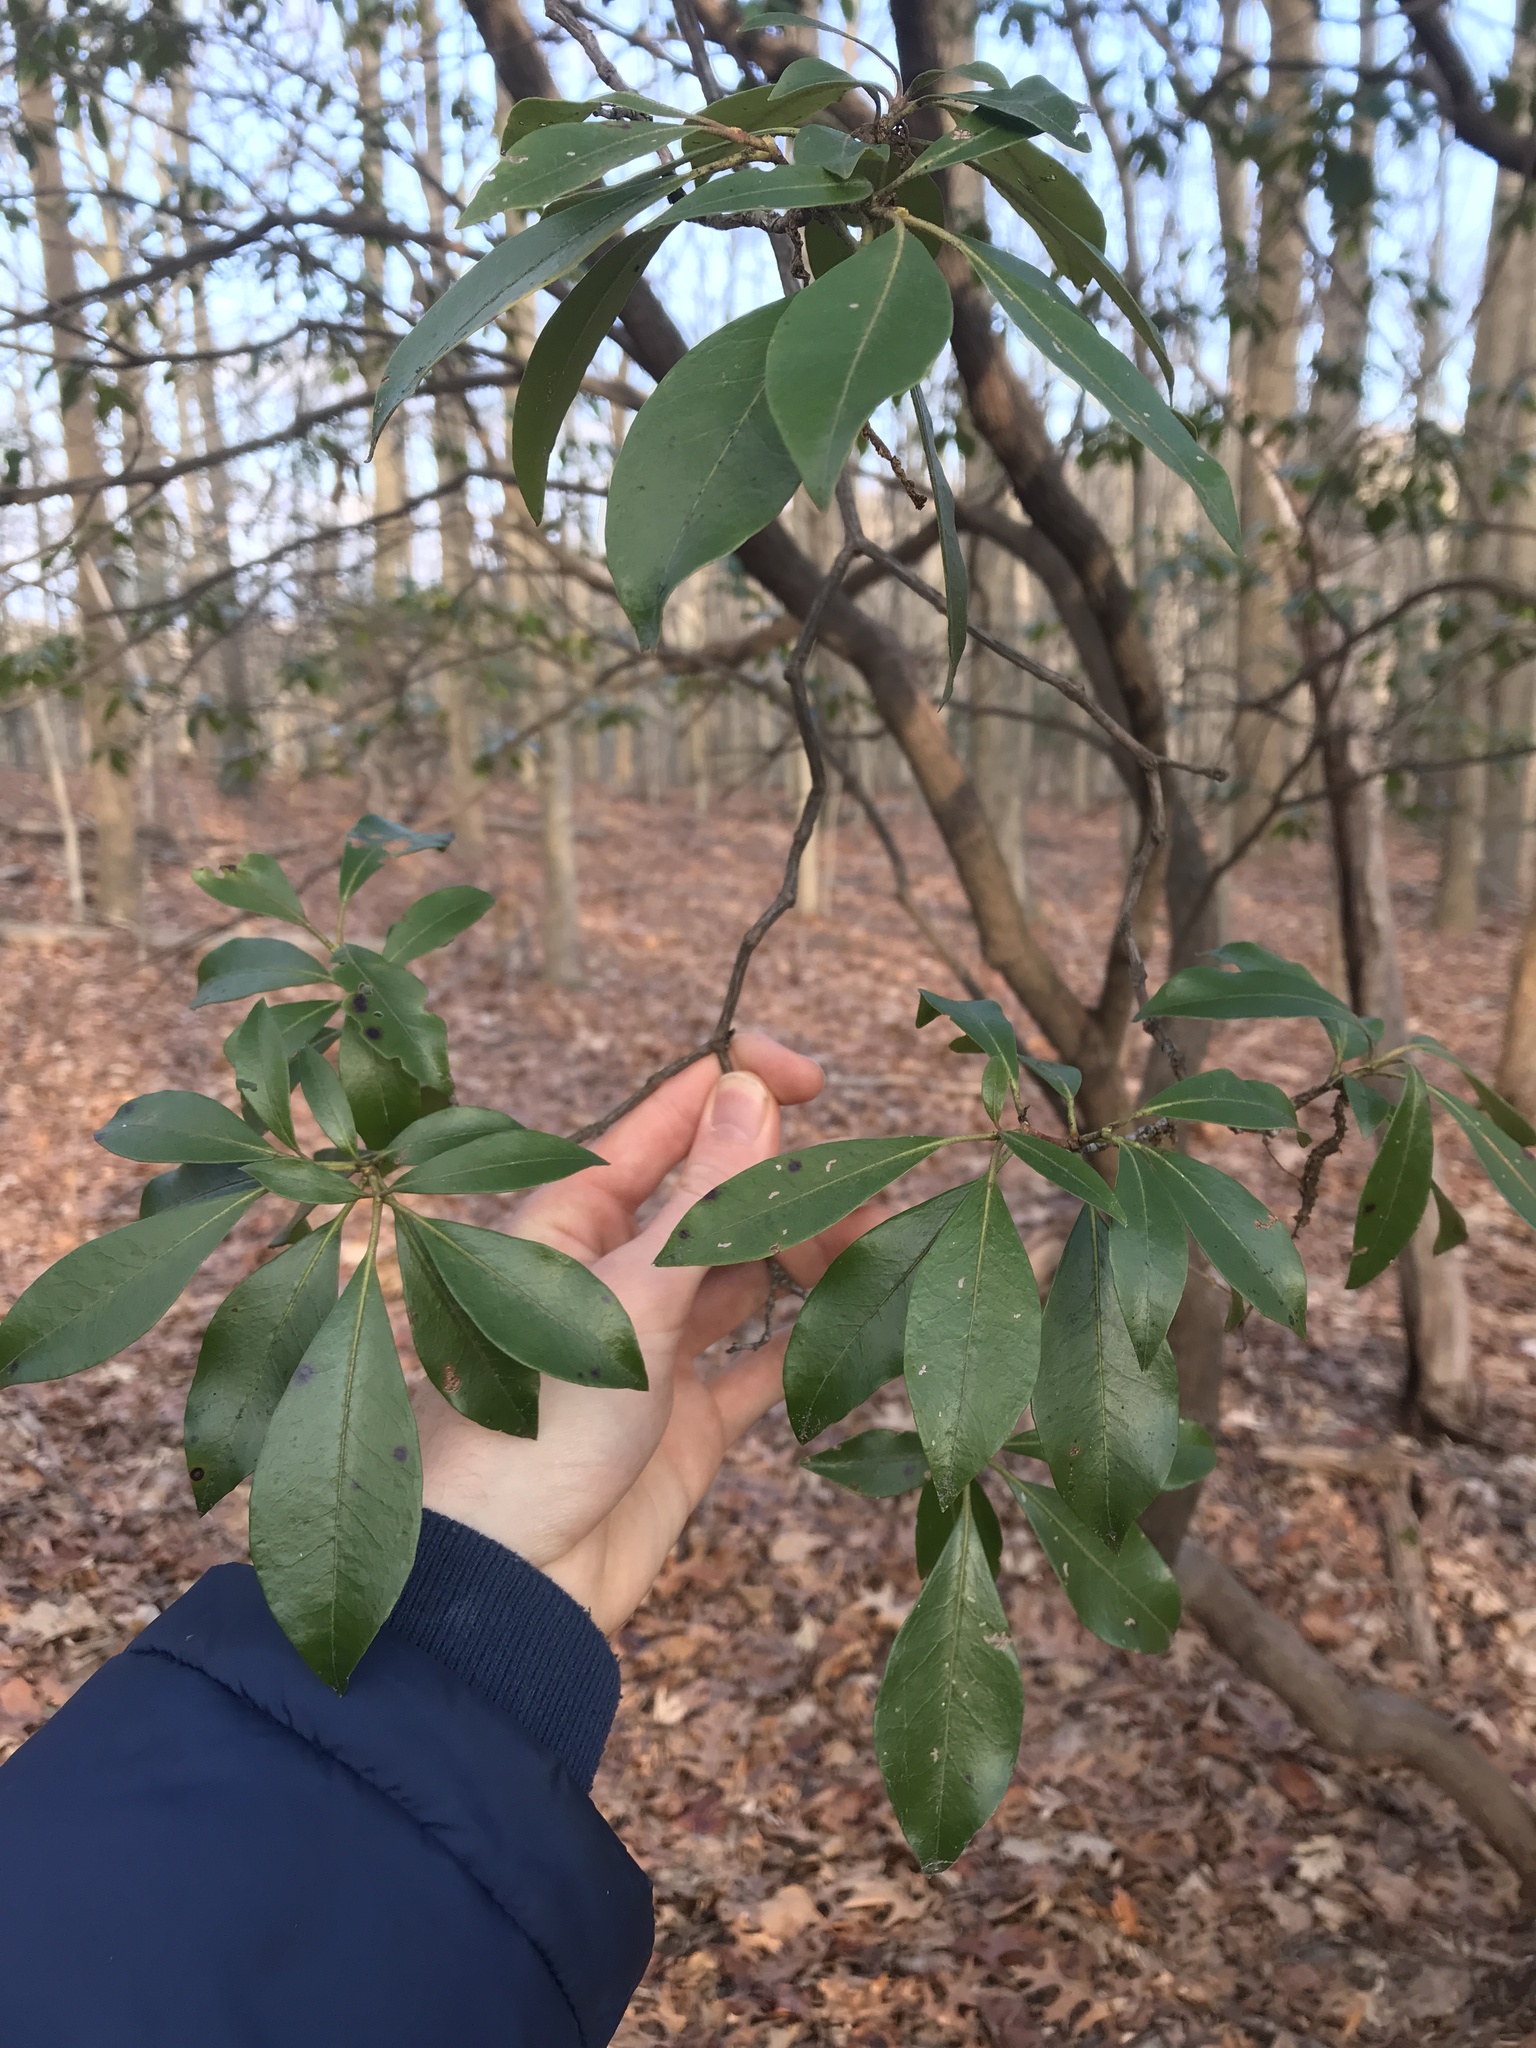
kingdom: Plantae
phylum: Tracheophyta
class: Magnoliopsida
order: Ericales
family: Ericaceae
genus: Kalmia
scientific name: Kalmia latifolia
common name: Mountain-laurel
